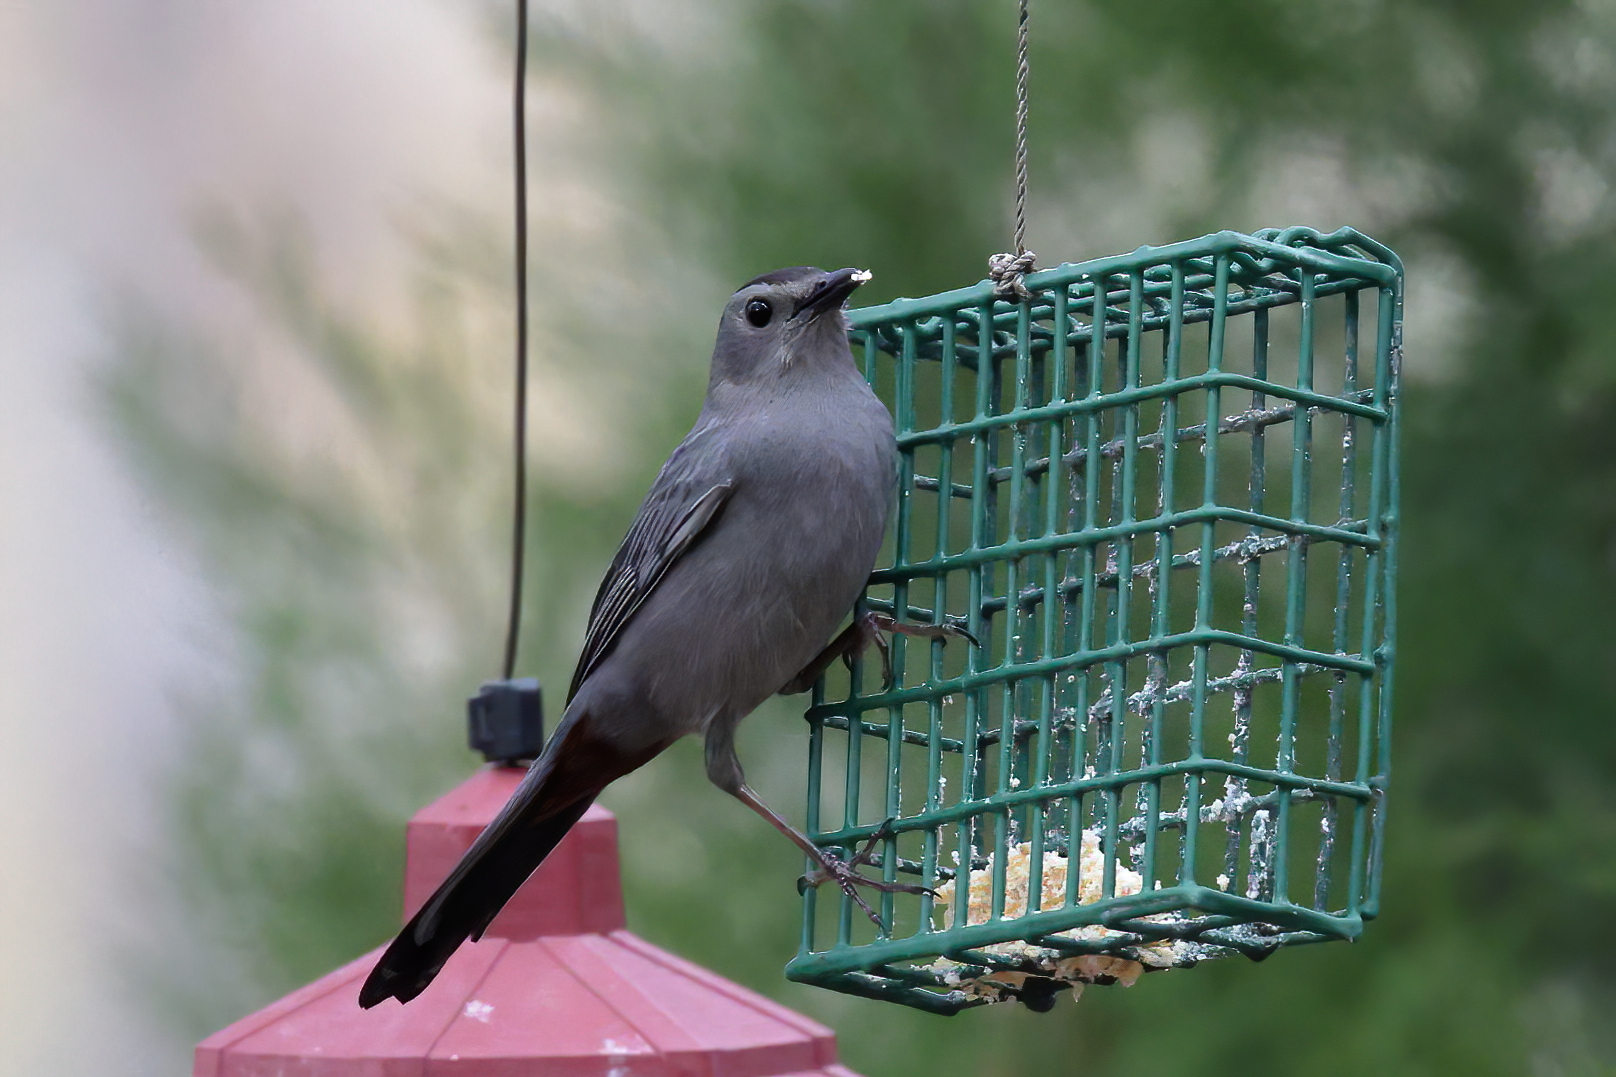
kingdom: Animalia
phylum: Chordata
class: Aves
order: Passeriformes
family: Mimidae
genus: Dumetella
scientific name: Dumetella carolinensis
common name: Gray catbird
